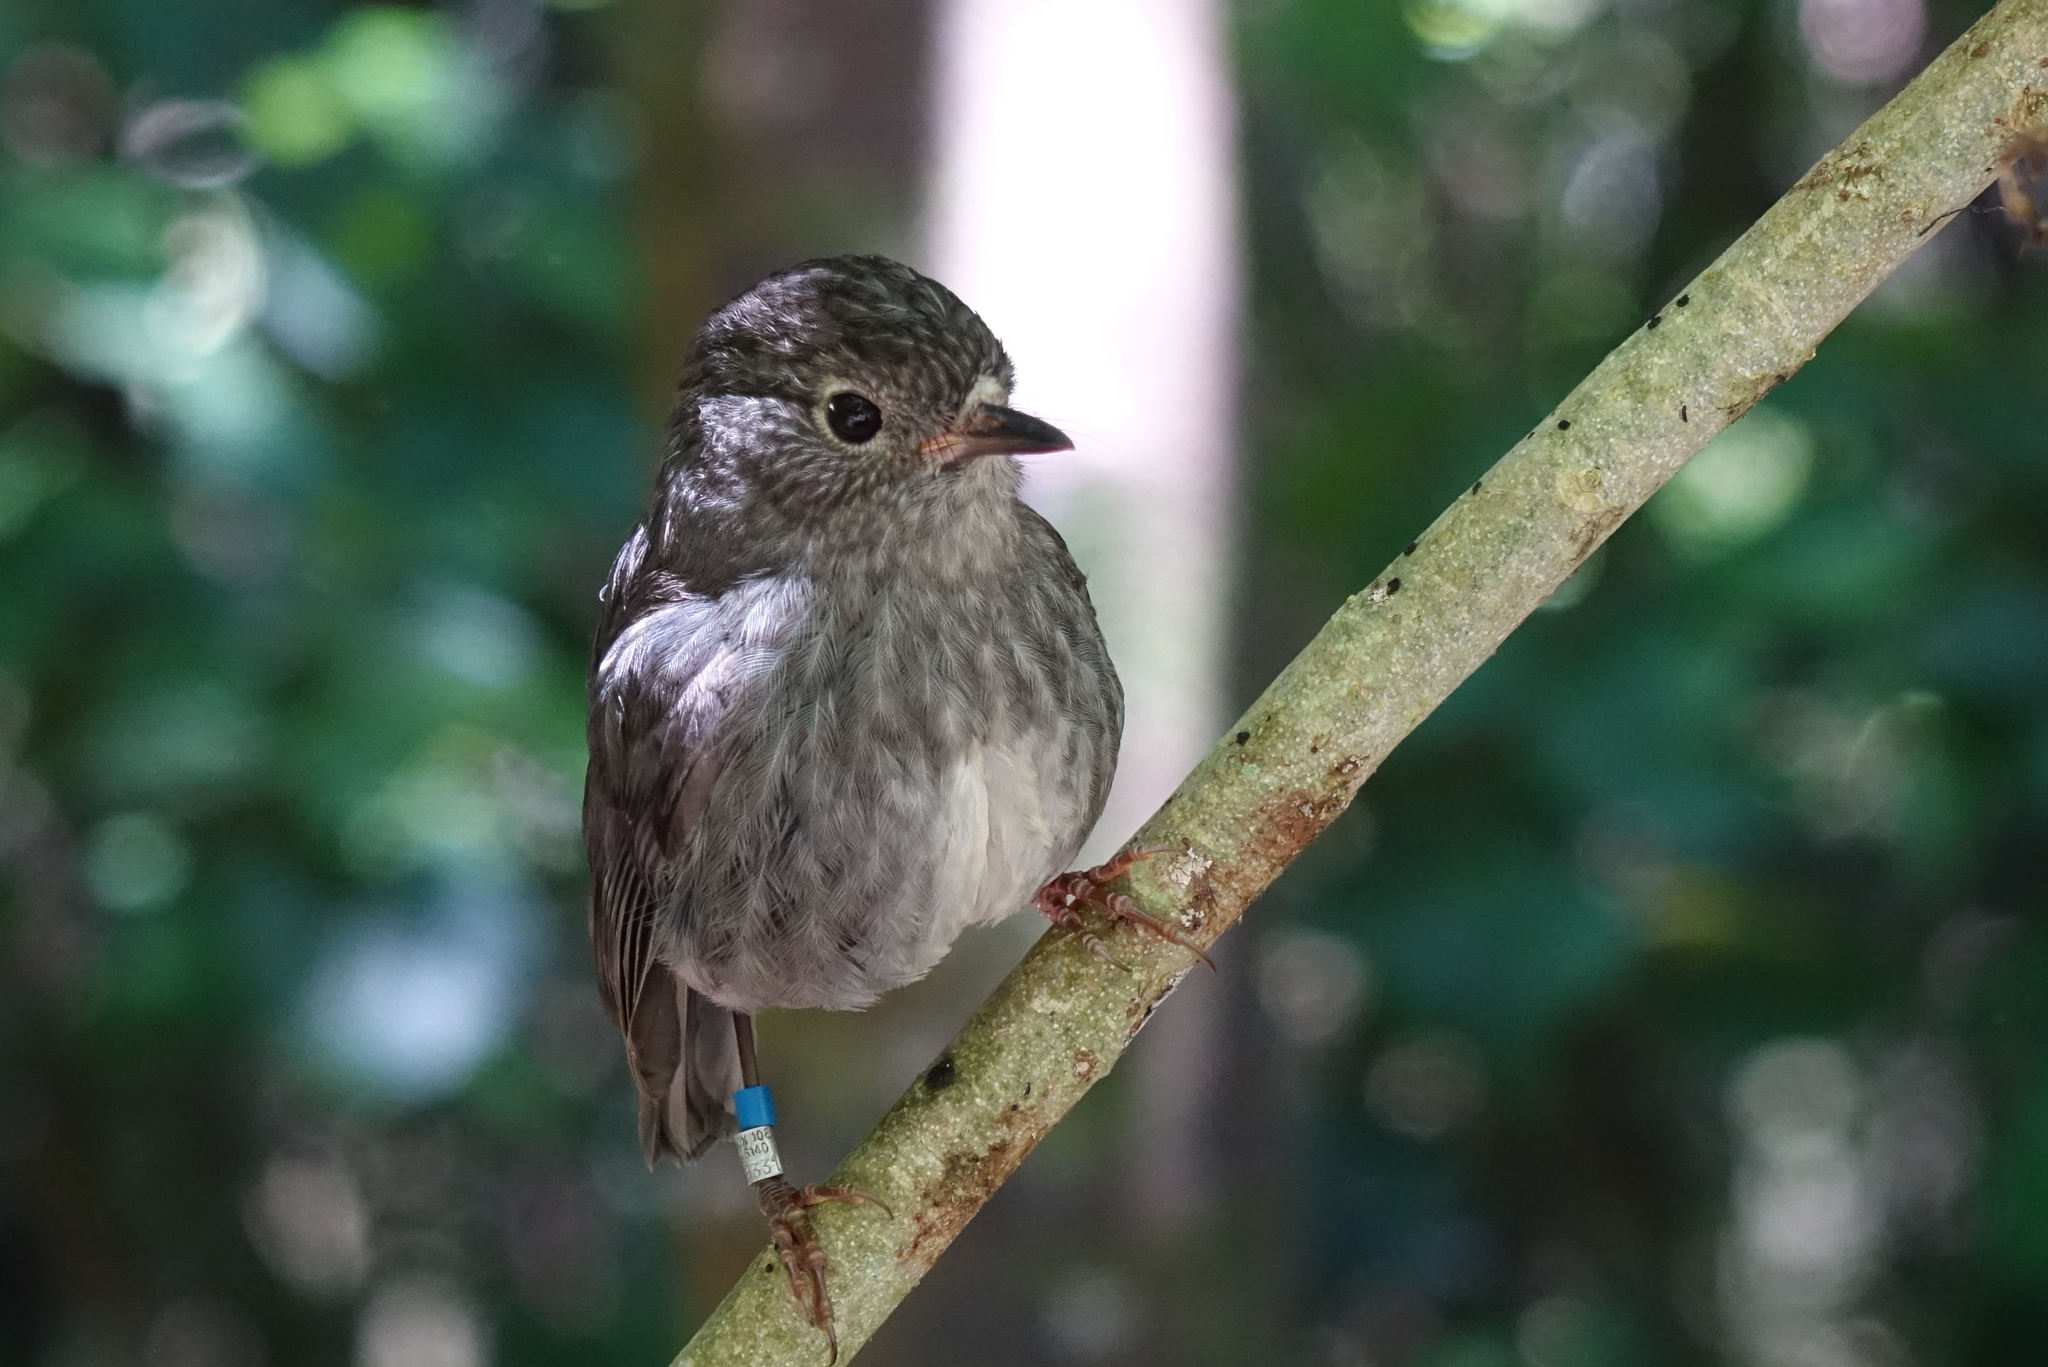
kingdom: Animalia
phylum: Chordata
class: Aves
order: Passeriformes
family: Petroicidae
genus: Petroica
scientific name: Petroica australis
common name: New zealand robin
